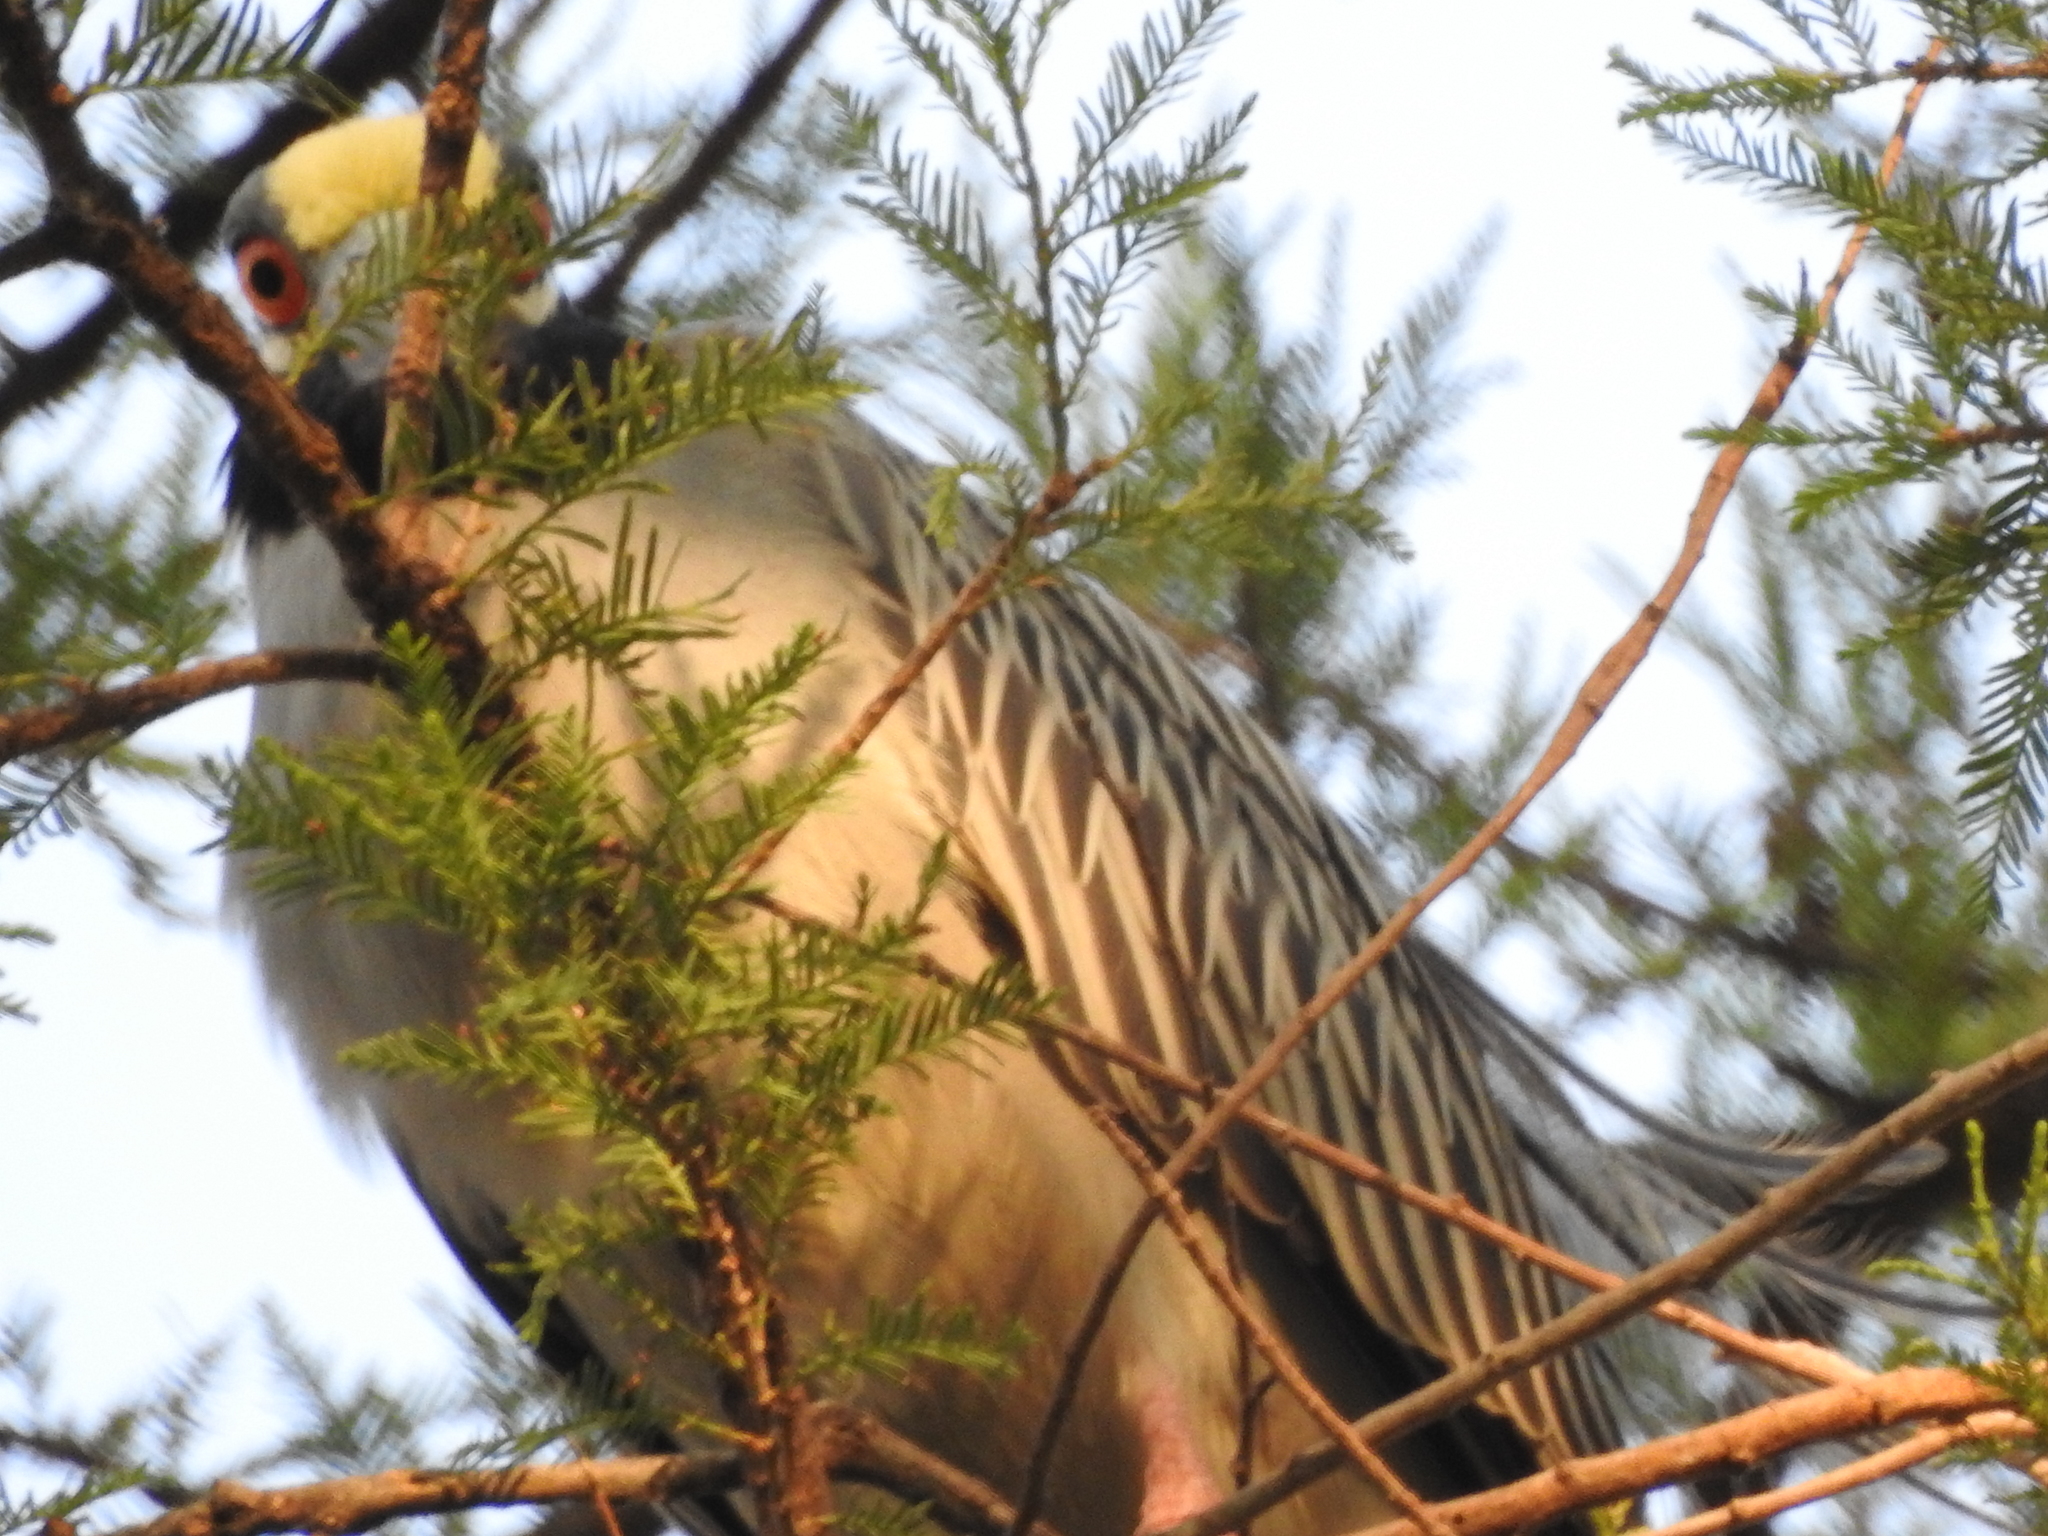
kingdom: Animalia
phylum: Chordata
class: Aves
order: Pelecaniformes
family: Ardeidae
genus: Nyctanassa
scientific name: Nyctanassa violacea
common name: Yellow-crowned night heron
